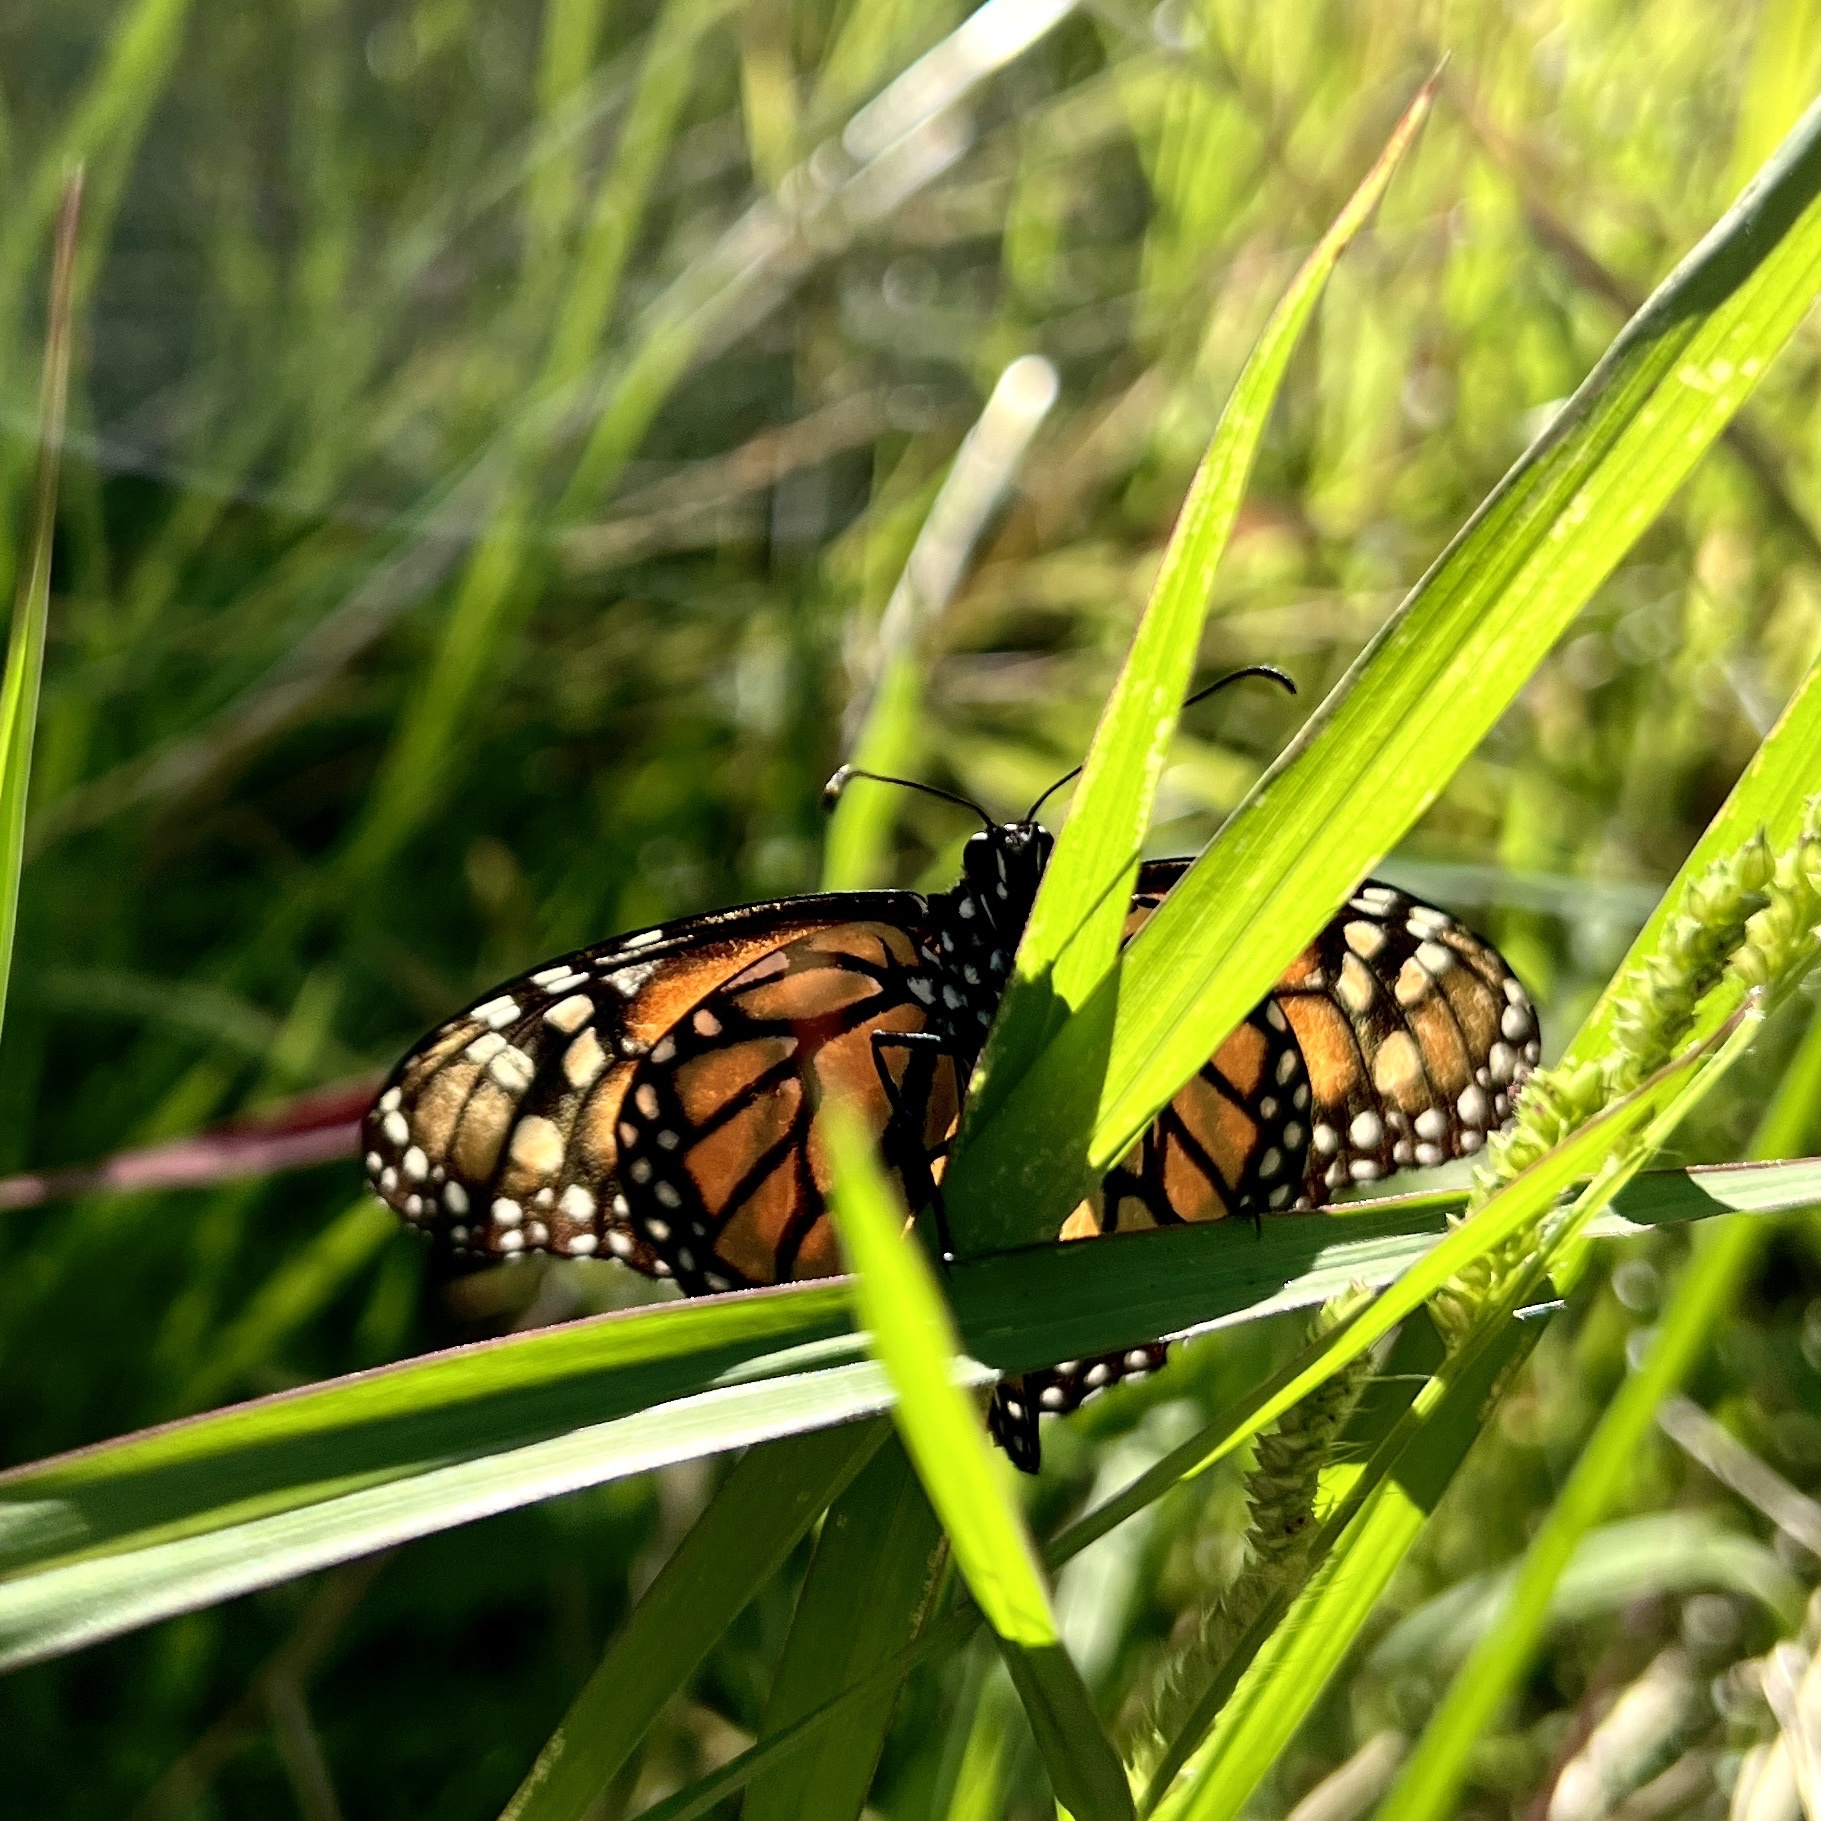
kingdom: Animalia
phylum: Arthropoda
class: Insecta
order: Lepidoptera
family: Nymphalidae
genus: Danaus
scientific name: Danaus plexippus
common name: Monarch
